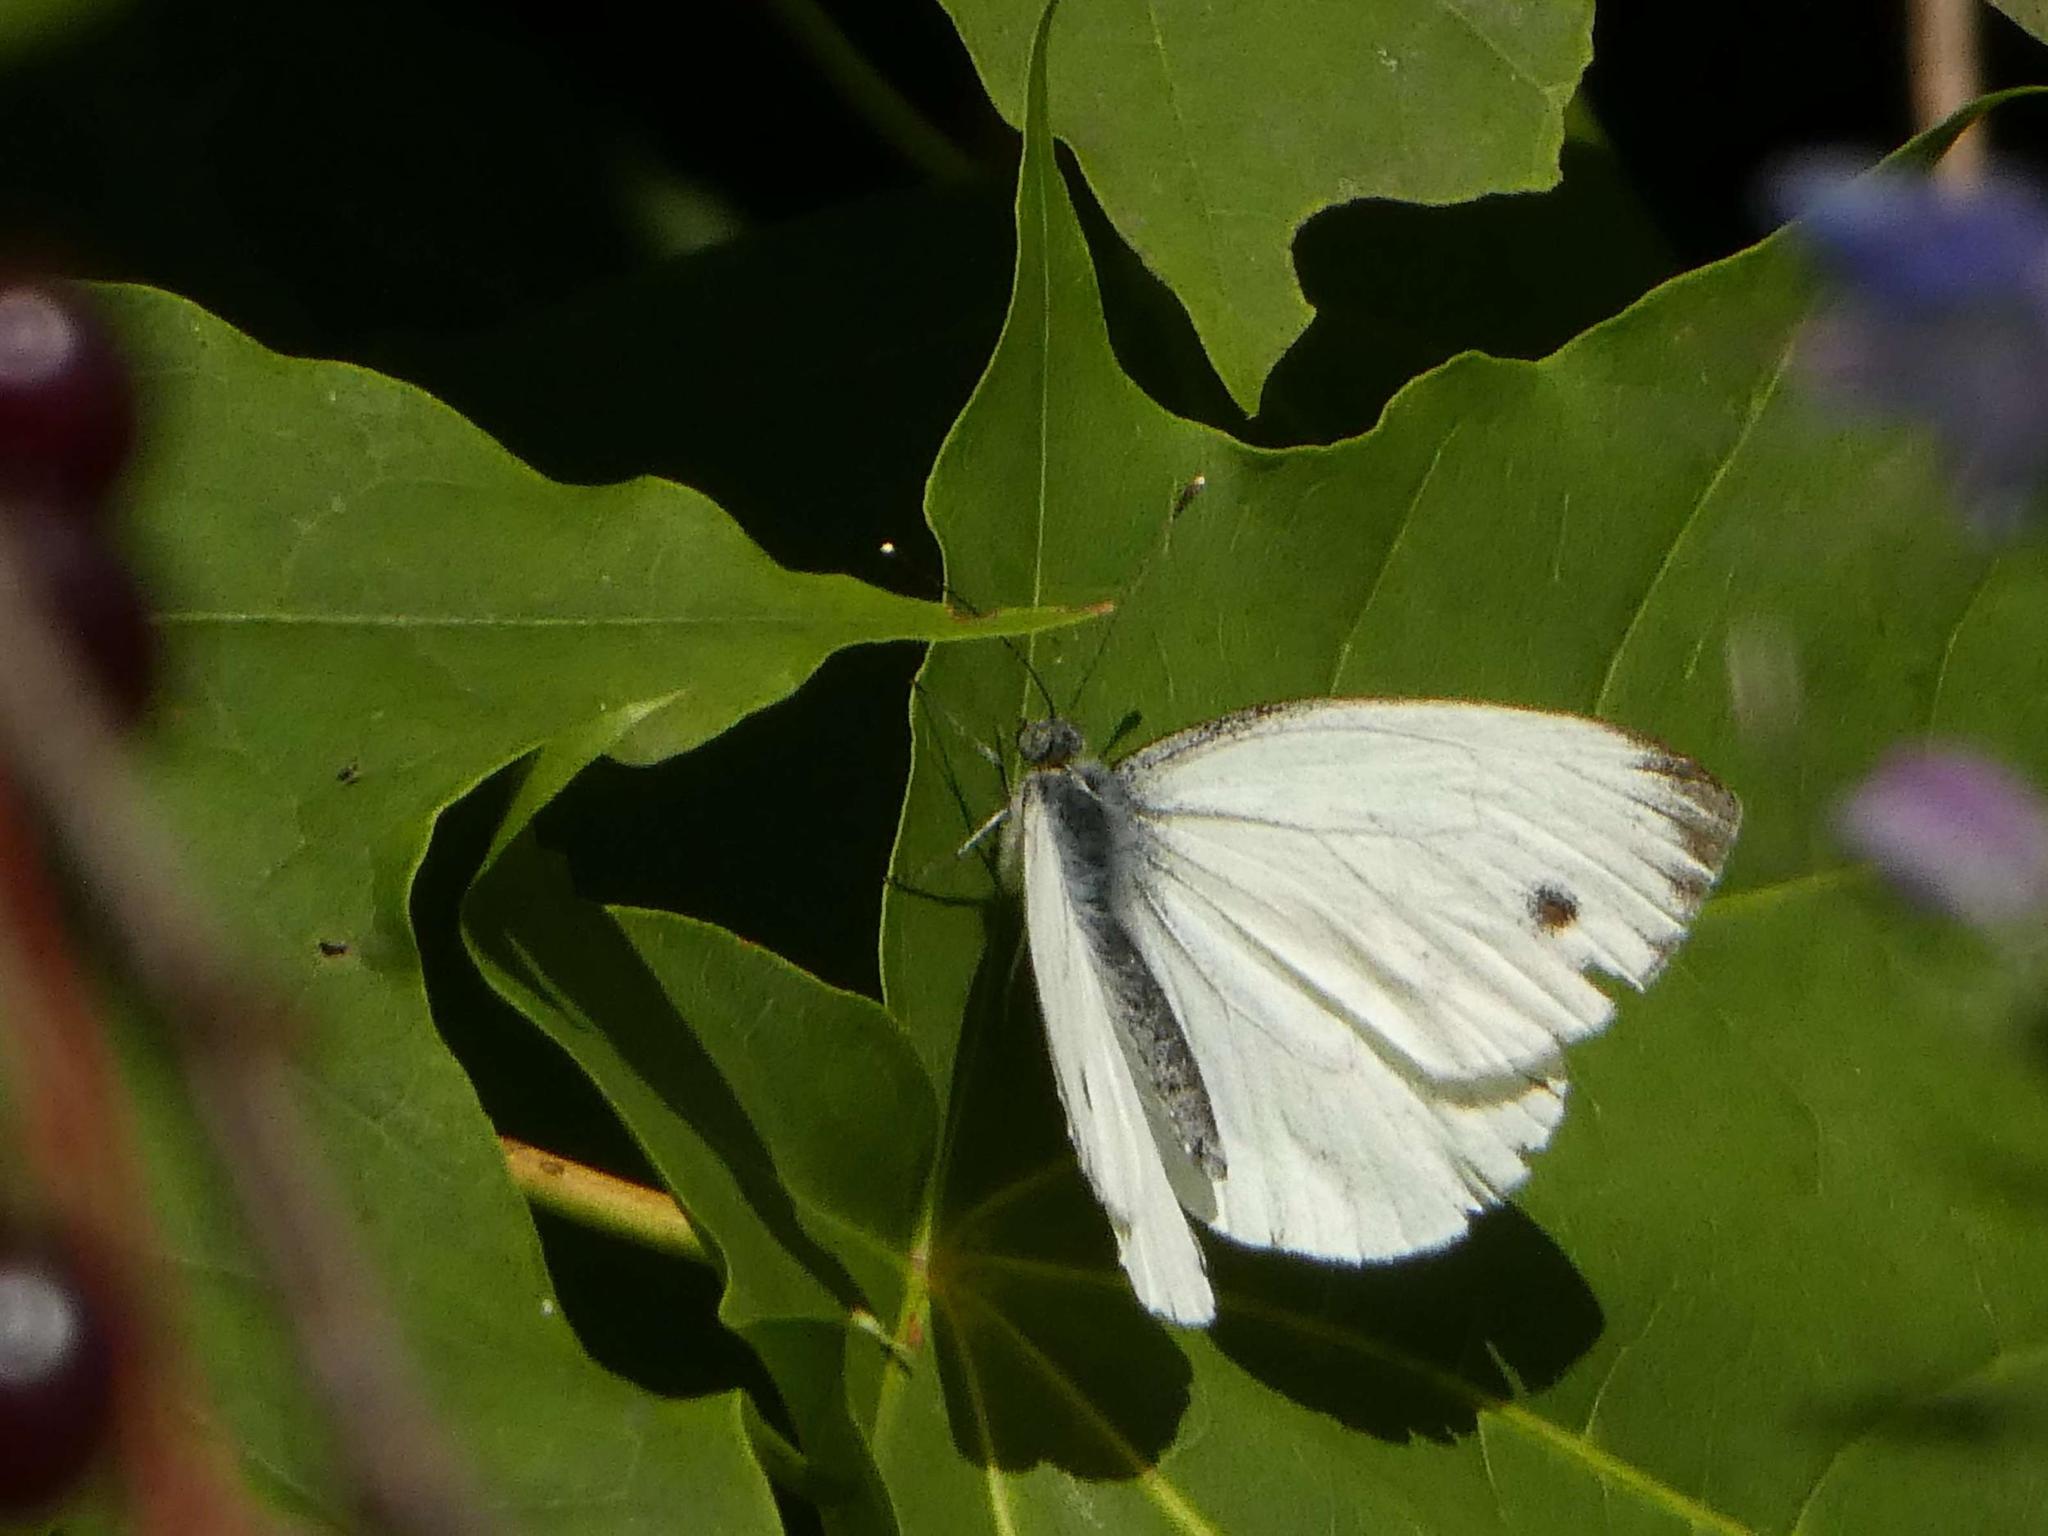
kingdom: Animalia
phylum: Arthropoda
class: Insecta
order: Lepidoptera
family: Pieridae
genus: Pieris
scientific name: Pieris napi
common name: Green-veined white
